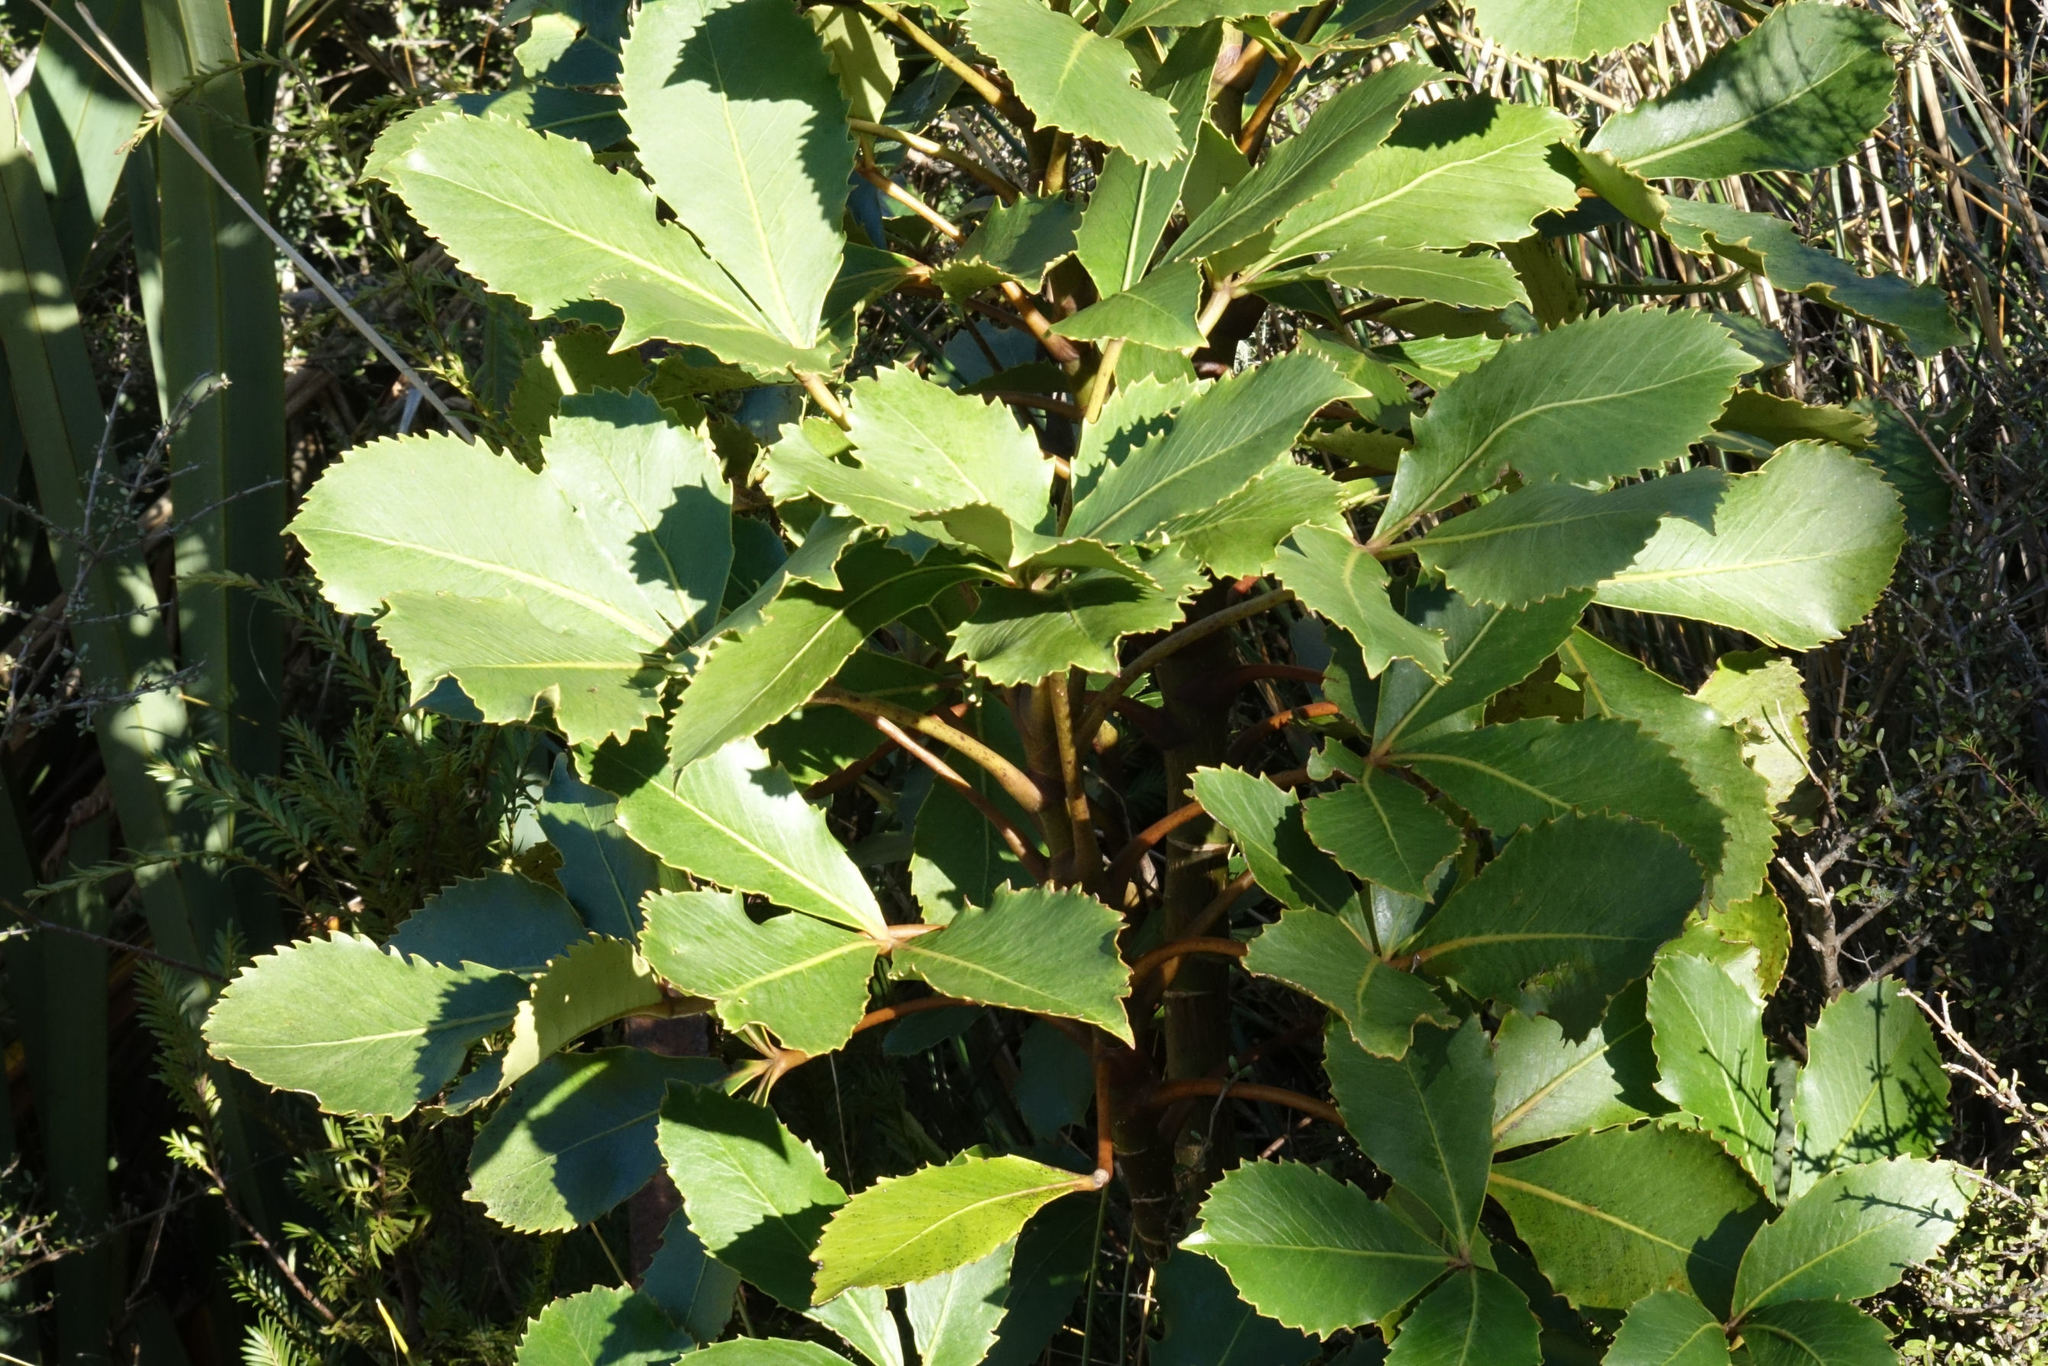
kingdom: Plantae
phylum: Tracheophyta
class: Magnoliopsida
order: Apiales
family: Araliaceae
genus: Neopanax
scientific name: Neopanax colensoi
